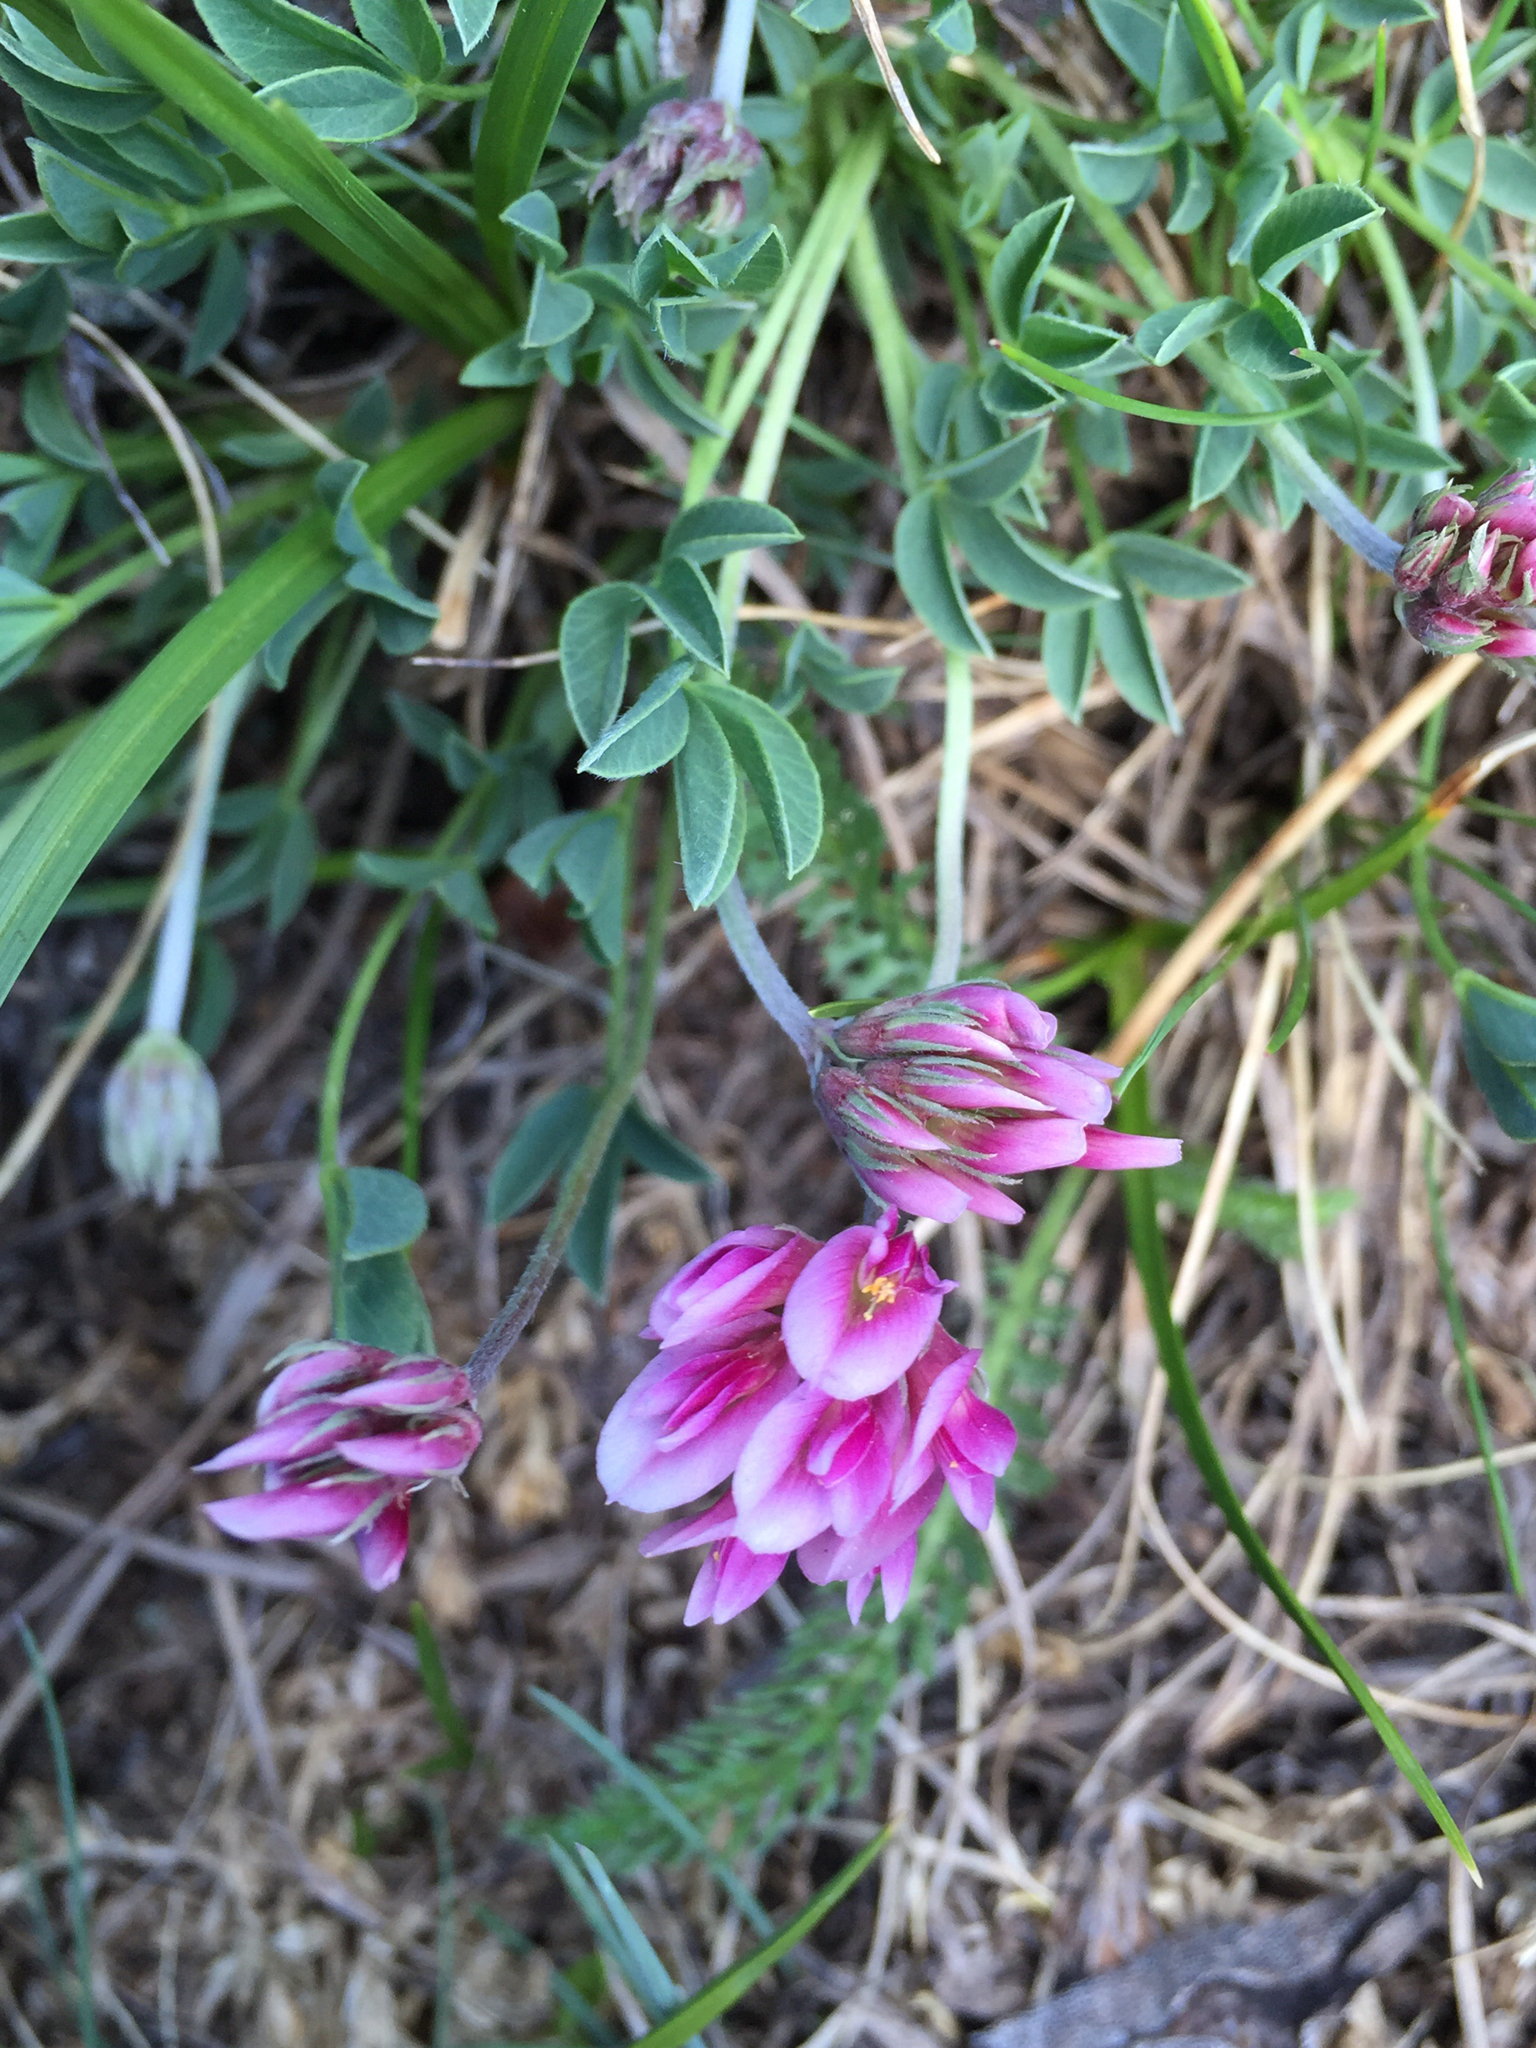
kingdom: Plantae
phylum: Tracheophyta
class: Magnoliopsida
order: Fabales
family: Fabaceae
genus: Trifolium
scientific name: Trifolium dasyphyllum
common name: Whip-root clover
